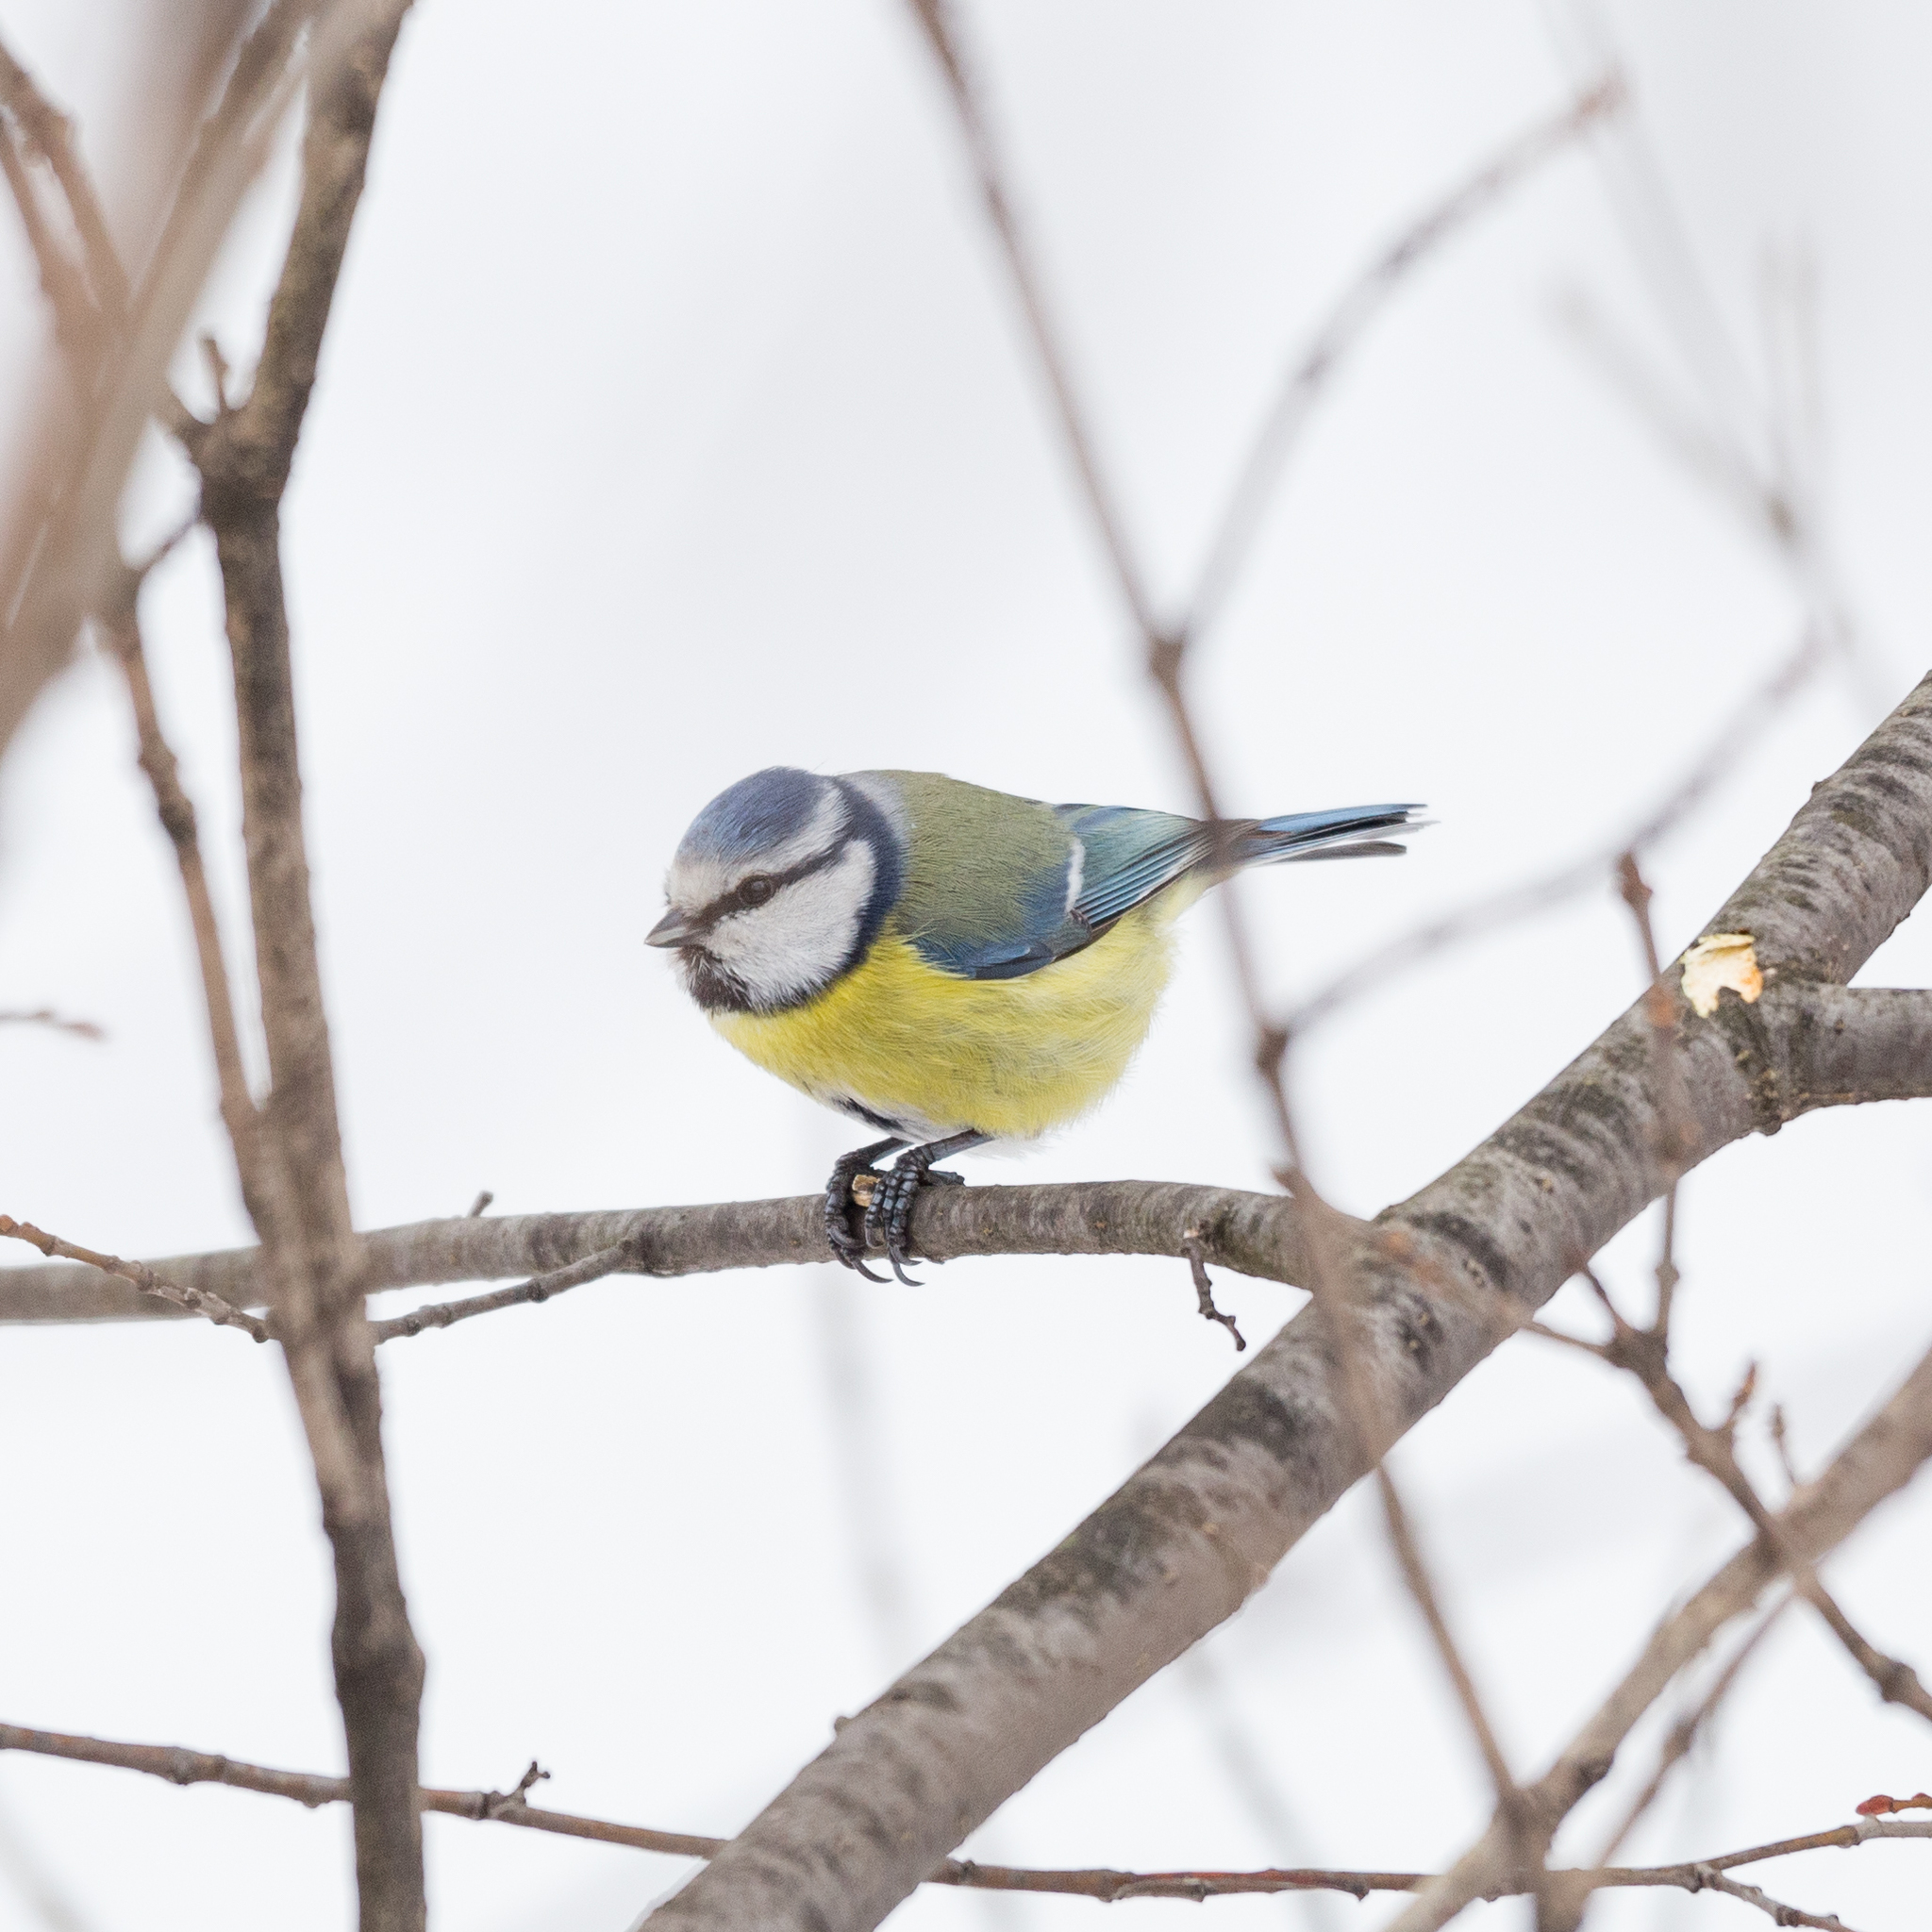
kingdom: Animalia
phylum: Chordata
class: Aves
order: Passeriformes
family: Paridae
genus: Cyanistes
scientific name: Cyanistes caeruleus
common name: Eurasian blue tit
